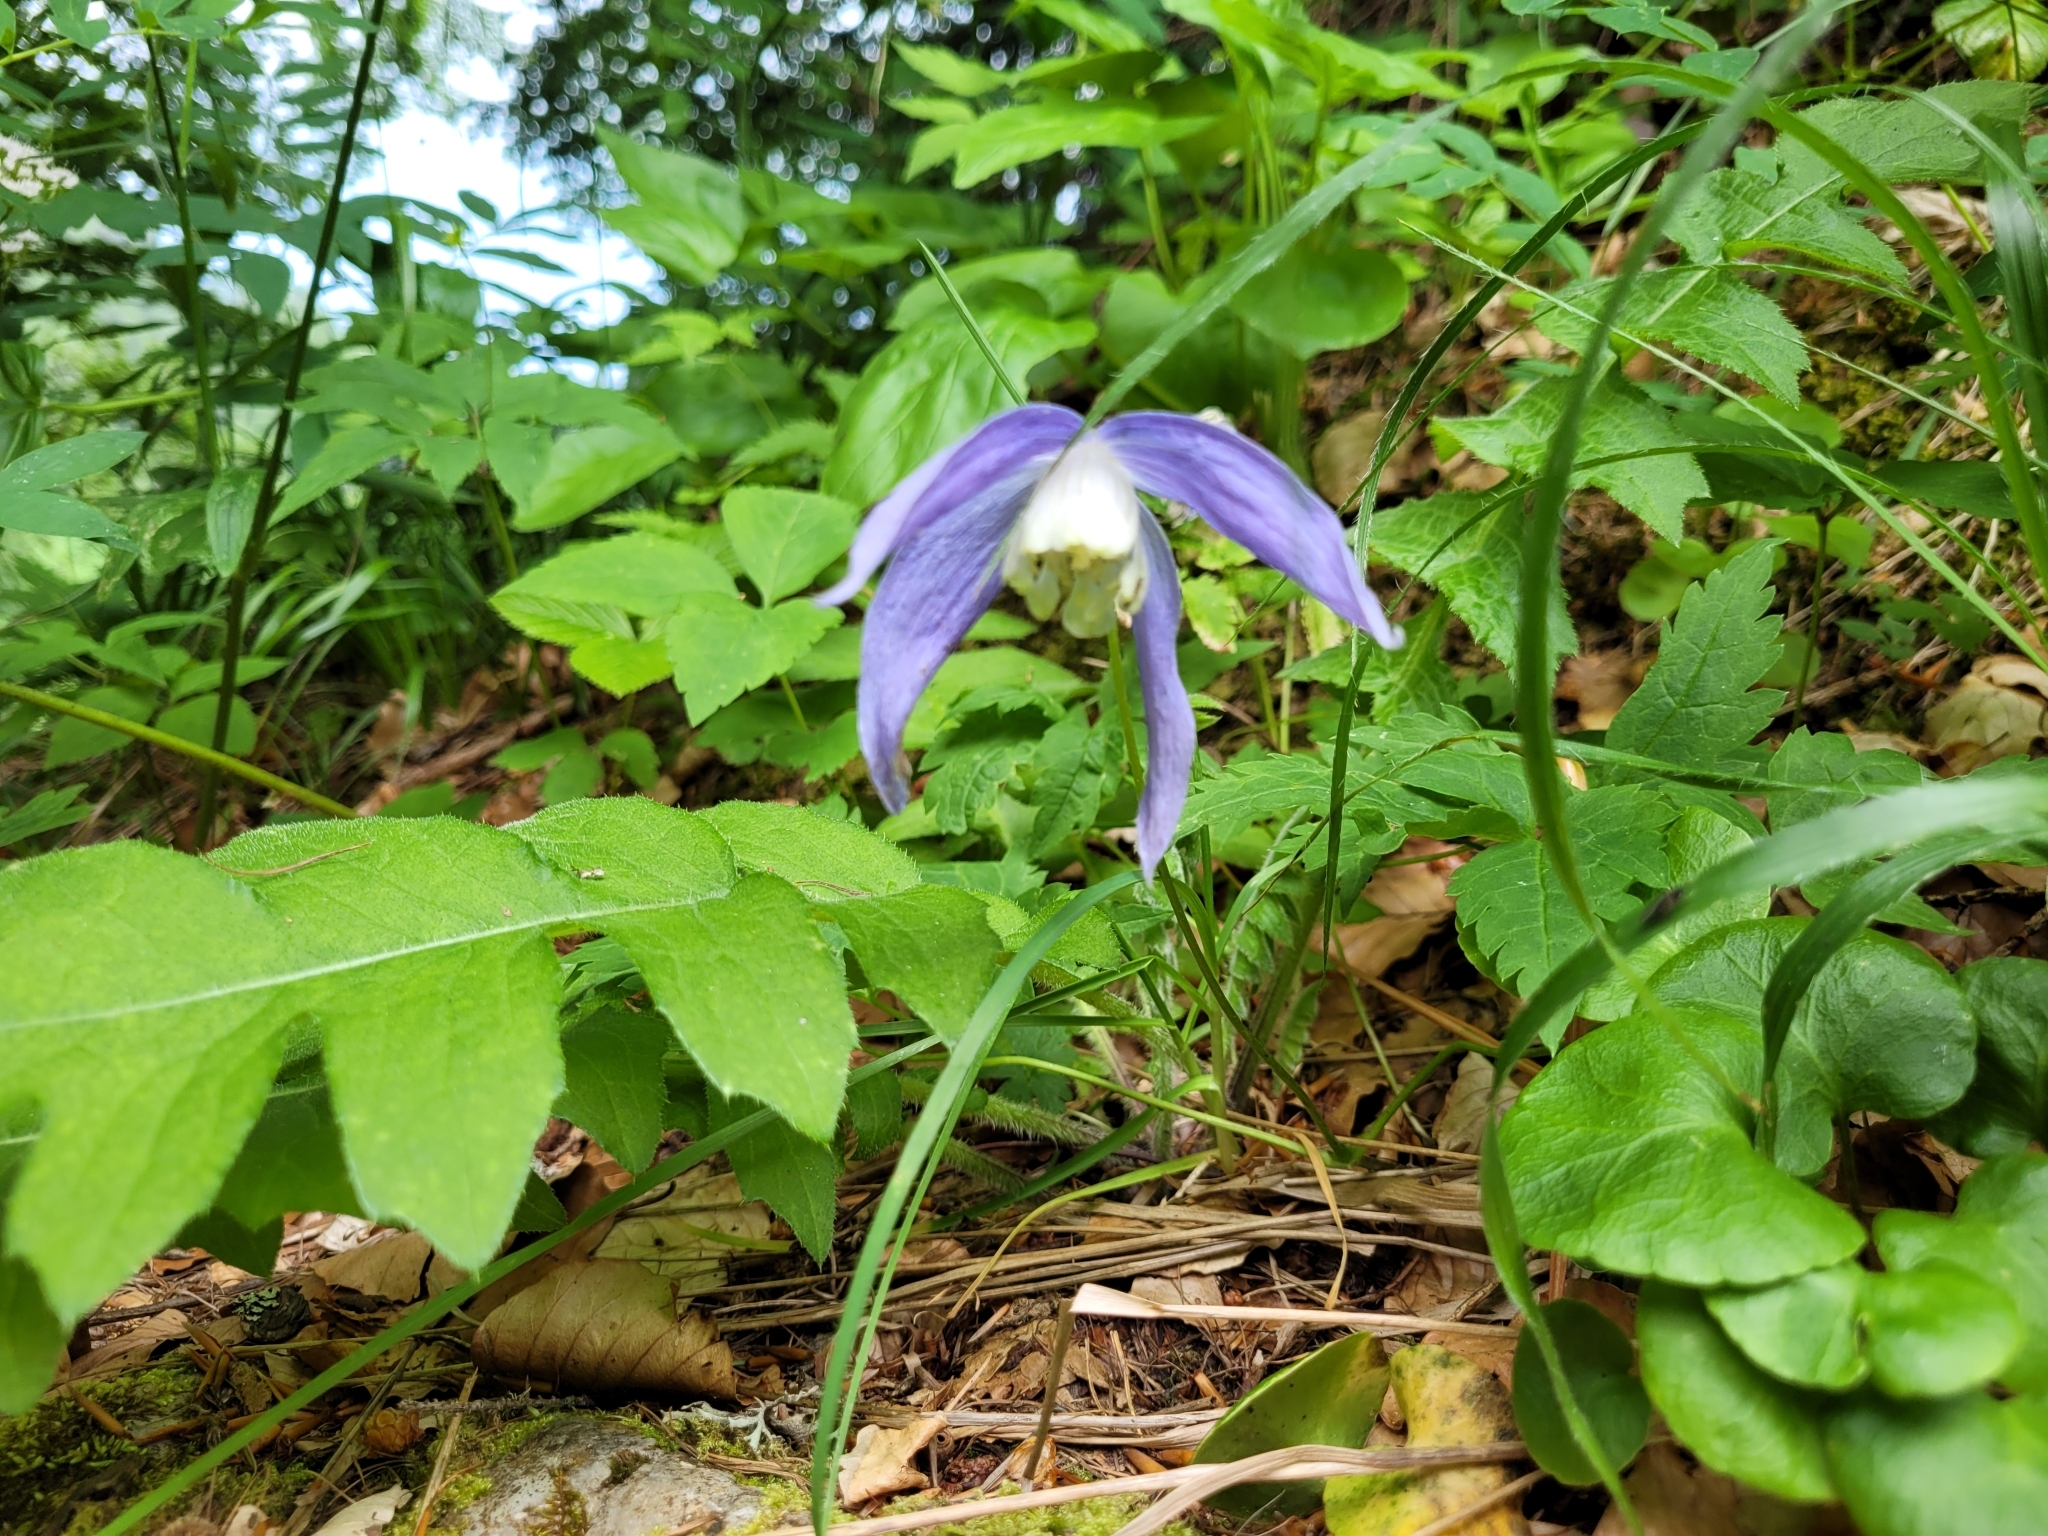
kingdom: Plantae
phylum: Tracheophyta
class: Magnoliopsida
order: Ranunculales
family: Ranunculaceae
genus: Clematis
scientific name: Clematis alpina
